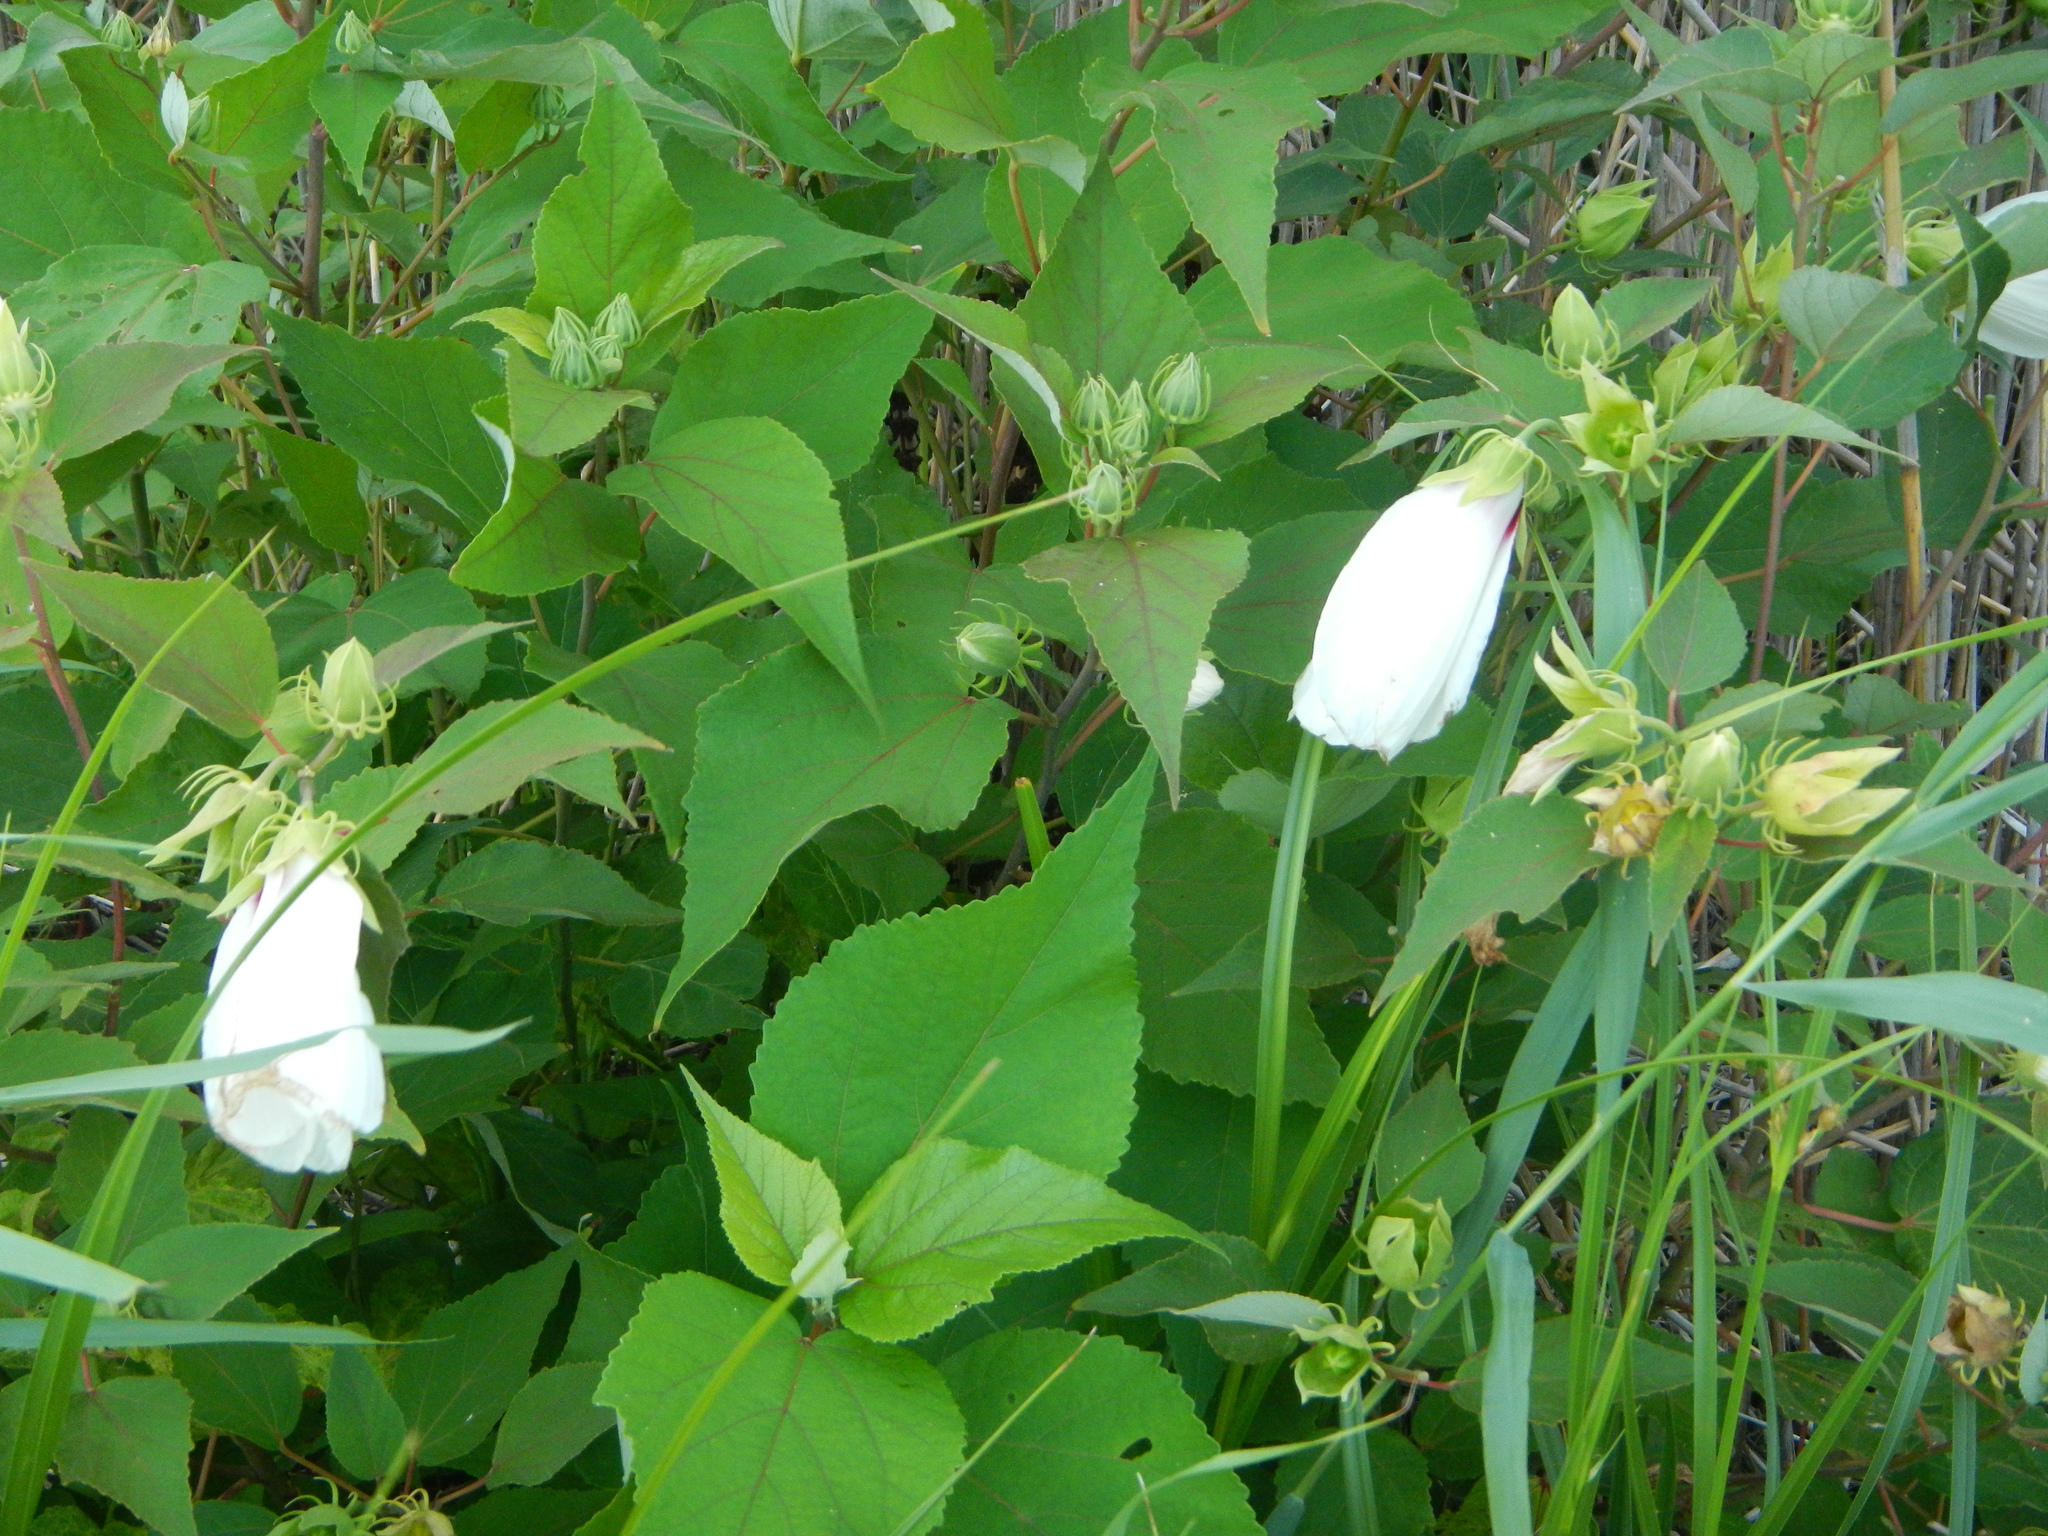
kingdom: Plantae
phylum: Tracheophyta
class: Magnoliopsida
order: Malvales
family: Malvaceae
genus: Hibiscus
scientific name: Hibiscus moscheutos
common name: Common rose-mallow
